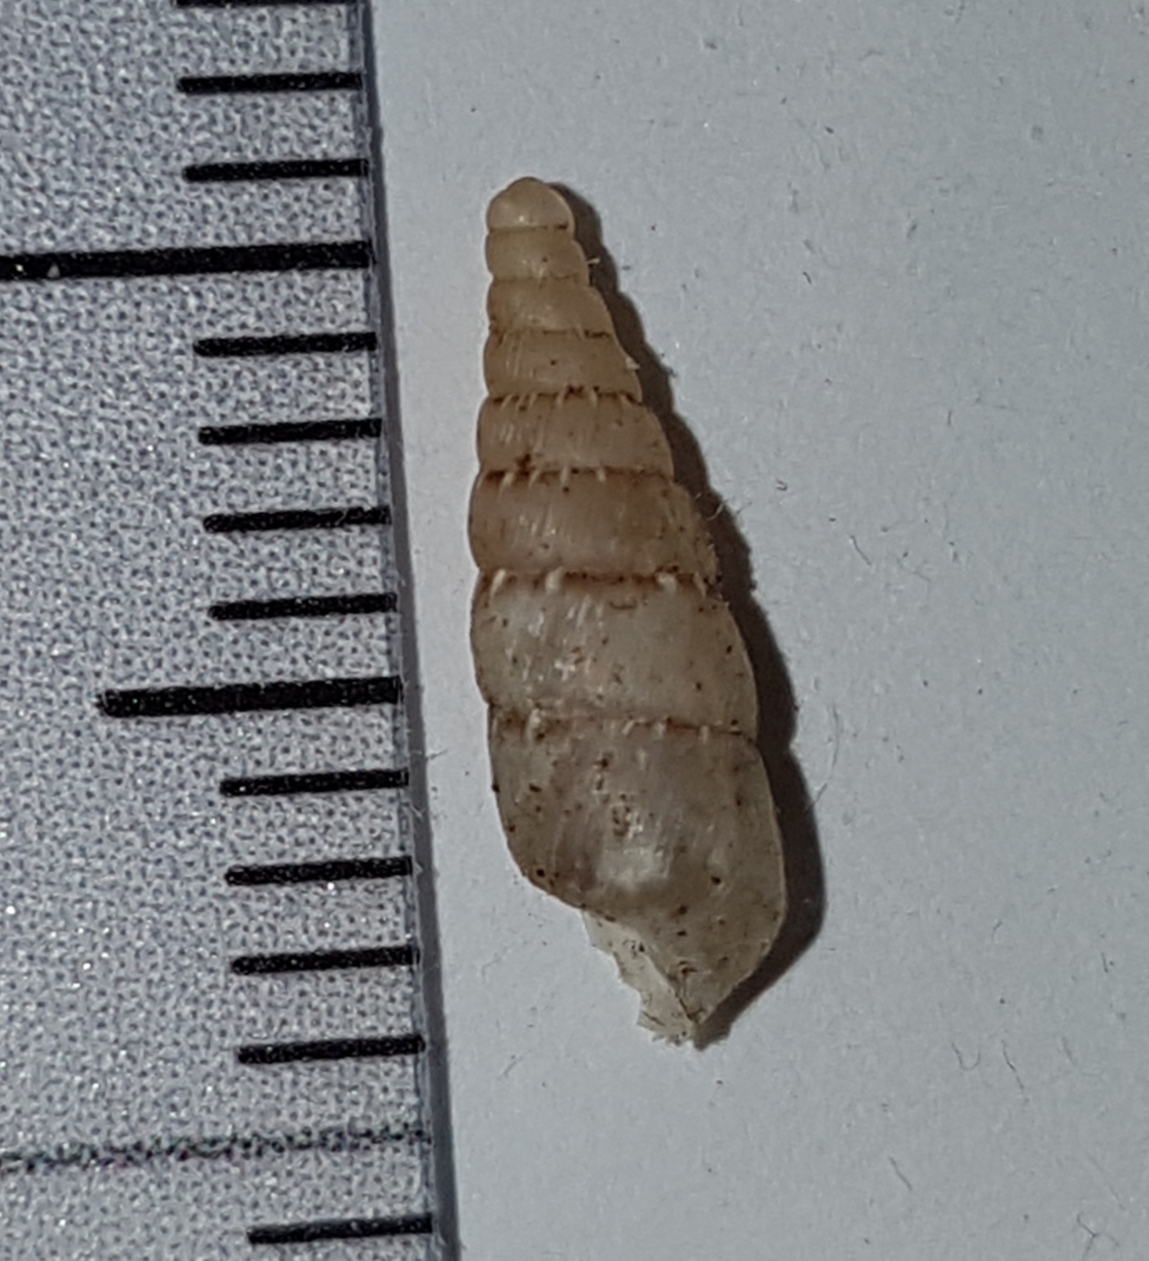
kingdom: Animalia
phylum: Mollusca
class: Gastropoda
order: Stylommatophora
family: Clausiliidae
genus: Papillifera
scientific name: Papillifera papillaris
